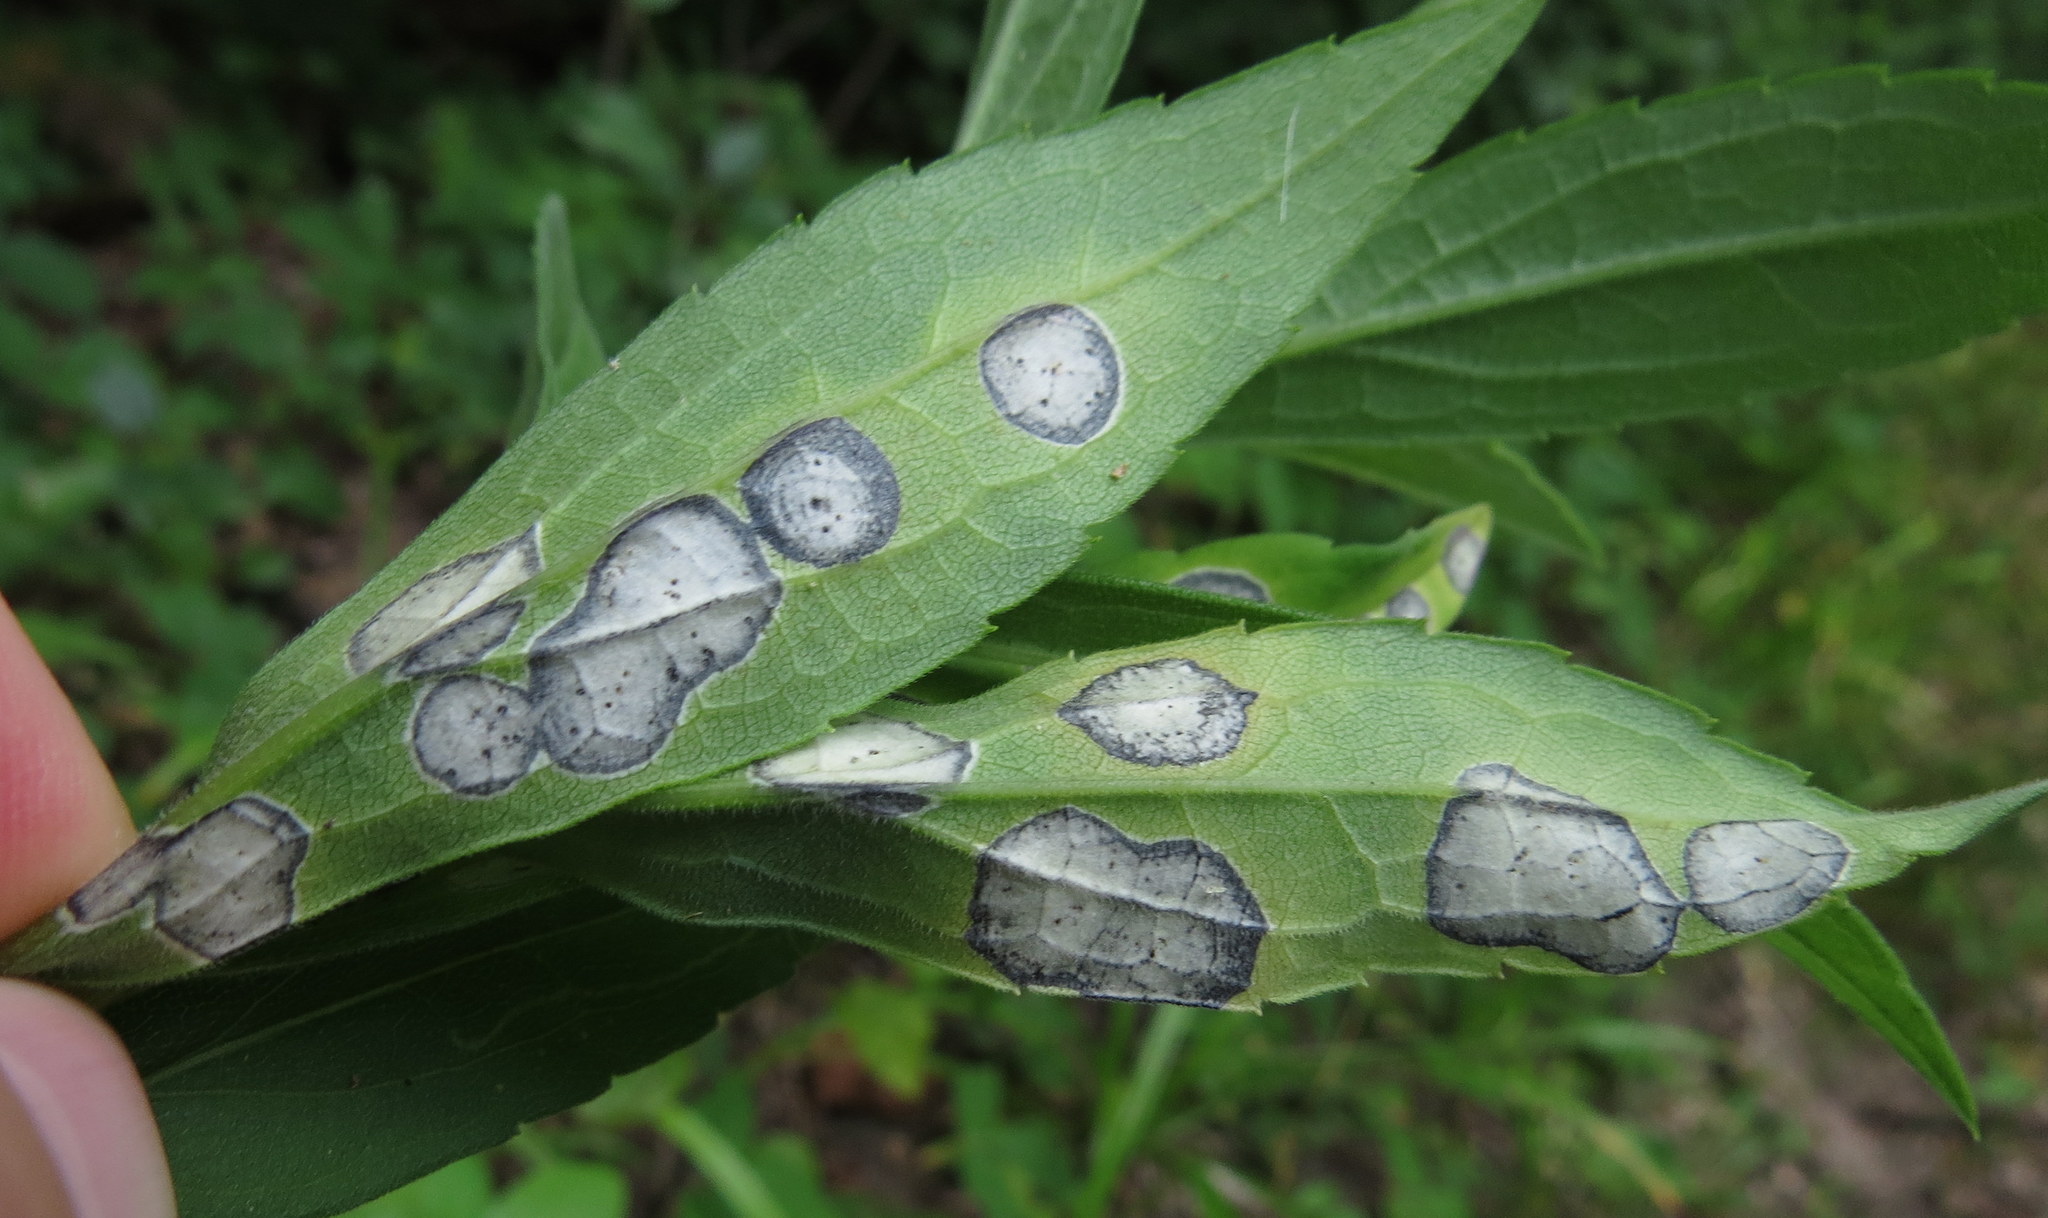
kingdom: Animalia
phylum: Arthropoda
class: Insecta
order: Diptera
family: Cecidomyiidae
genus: Asteromyia
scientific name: Asteromyia carbonifera
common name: Carbonifera goldenrod gall midge
